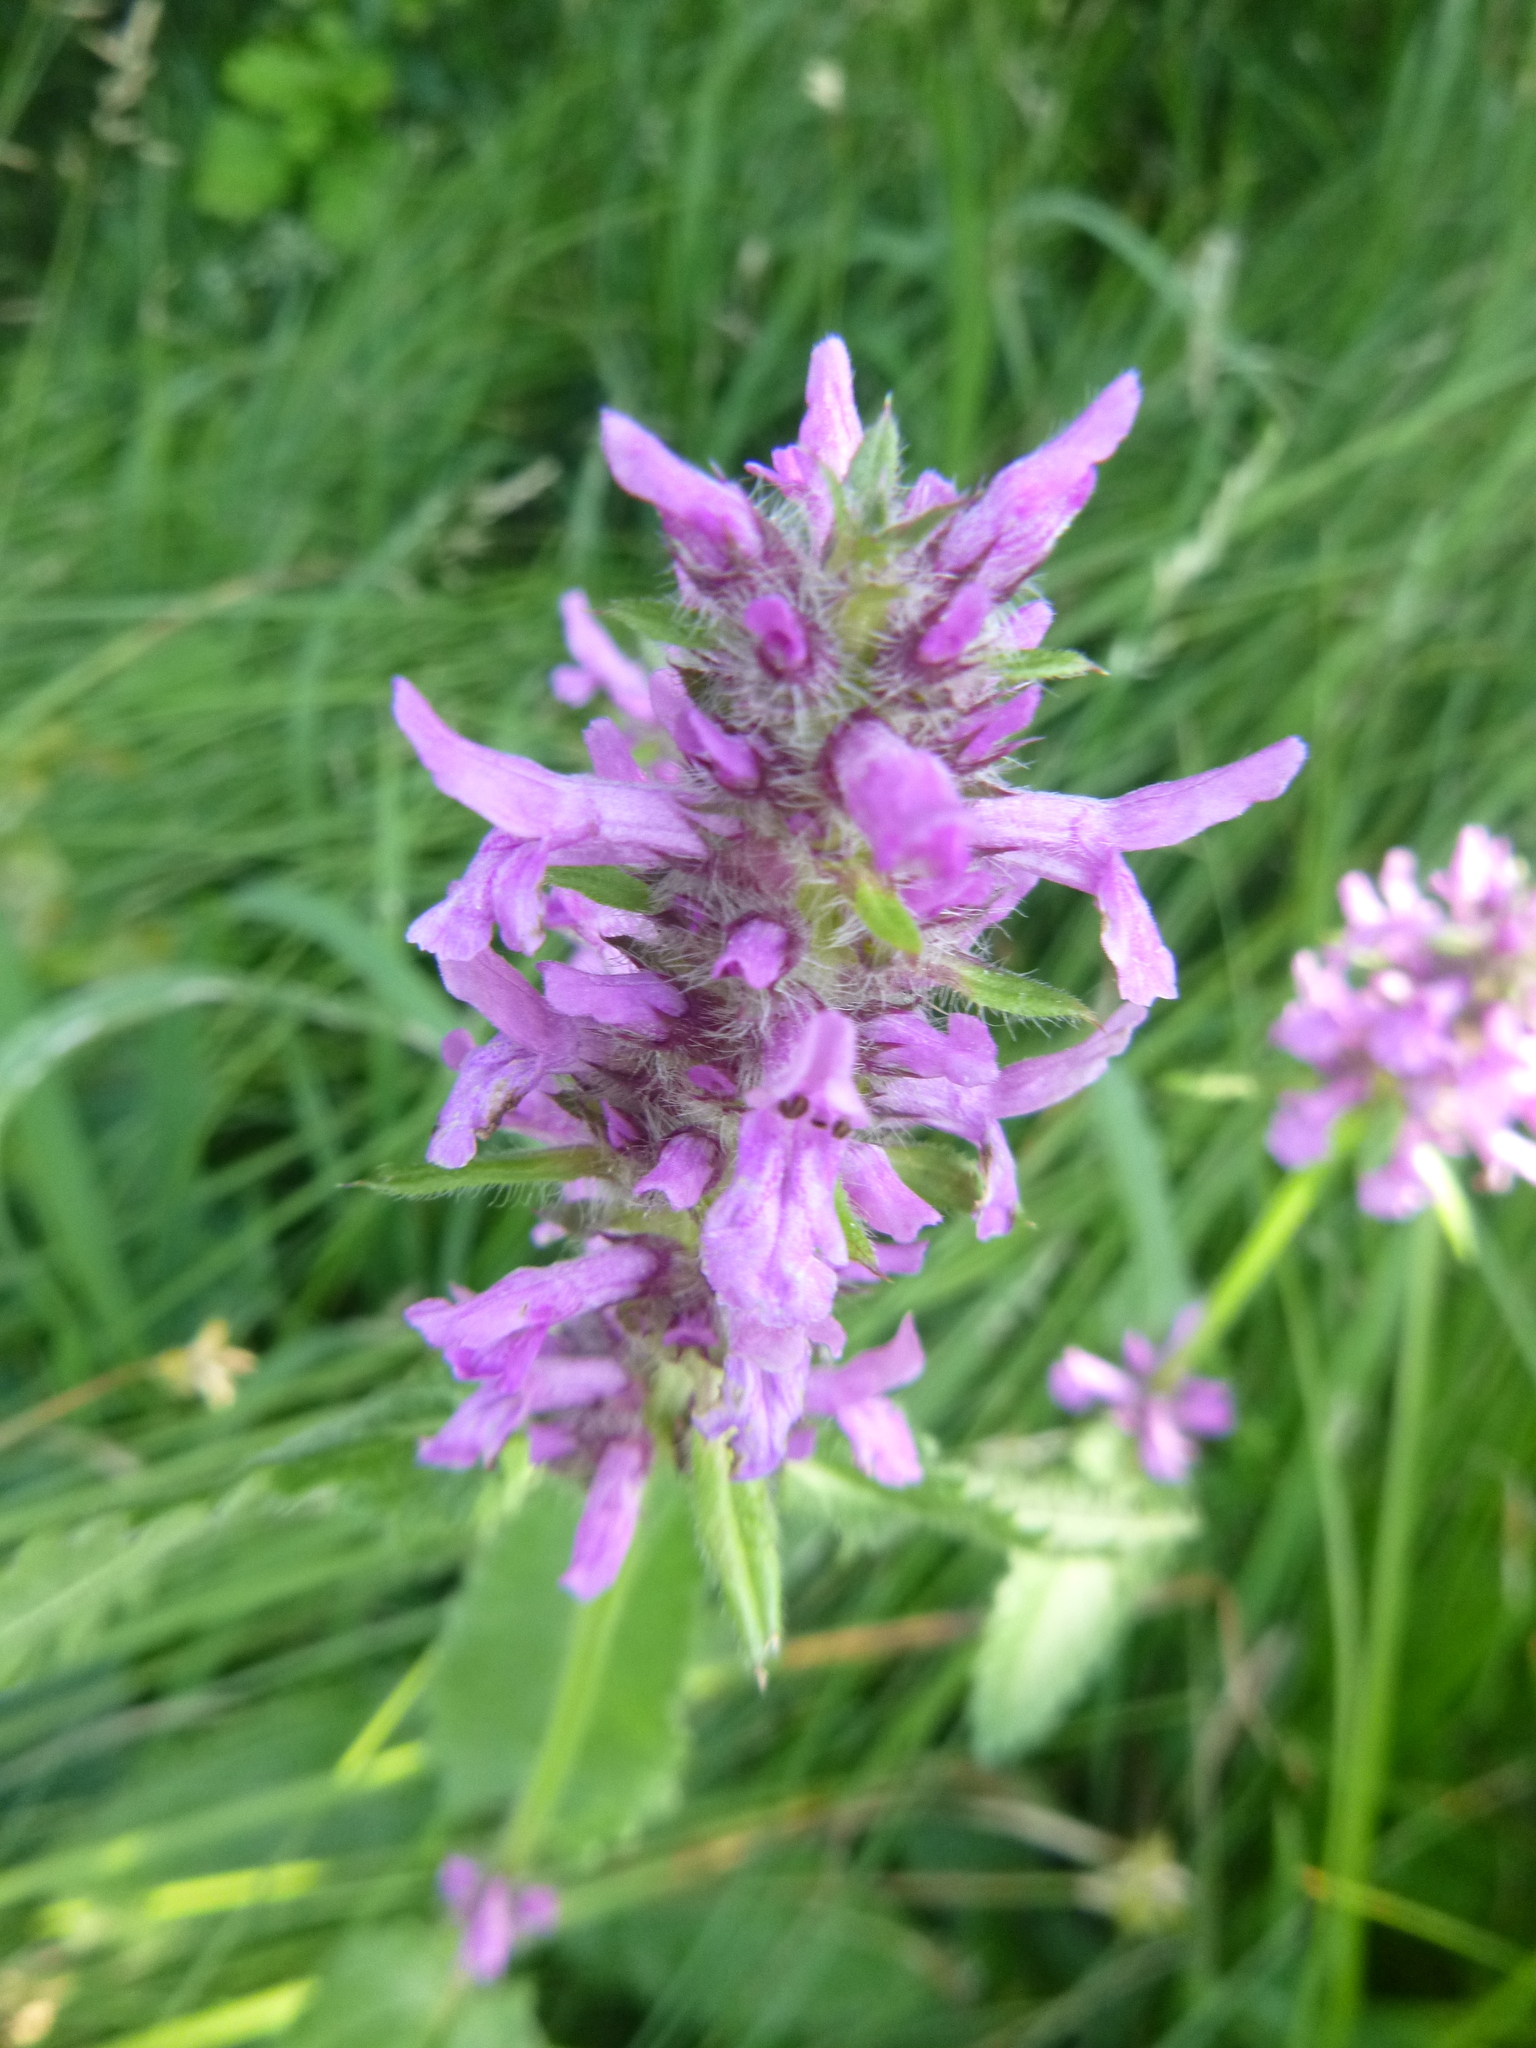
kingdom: Plantae
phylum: Tracheophyta
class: Magnoliopsida
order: Lamiales
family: Lamiaceae
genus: Betonica
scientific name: Betonica officinalis
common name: Bishop's-wort
